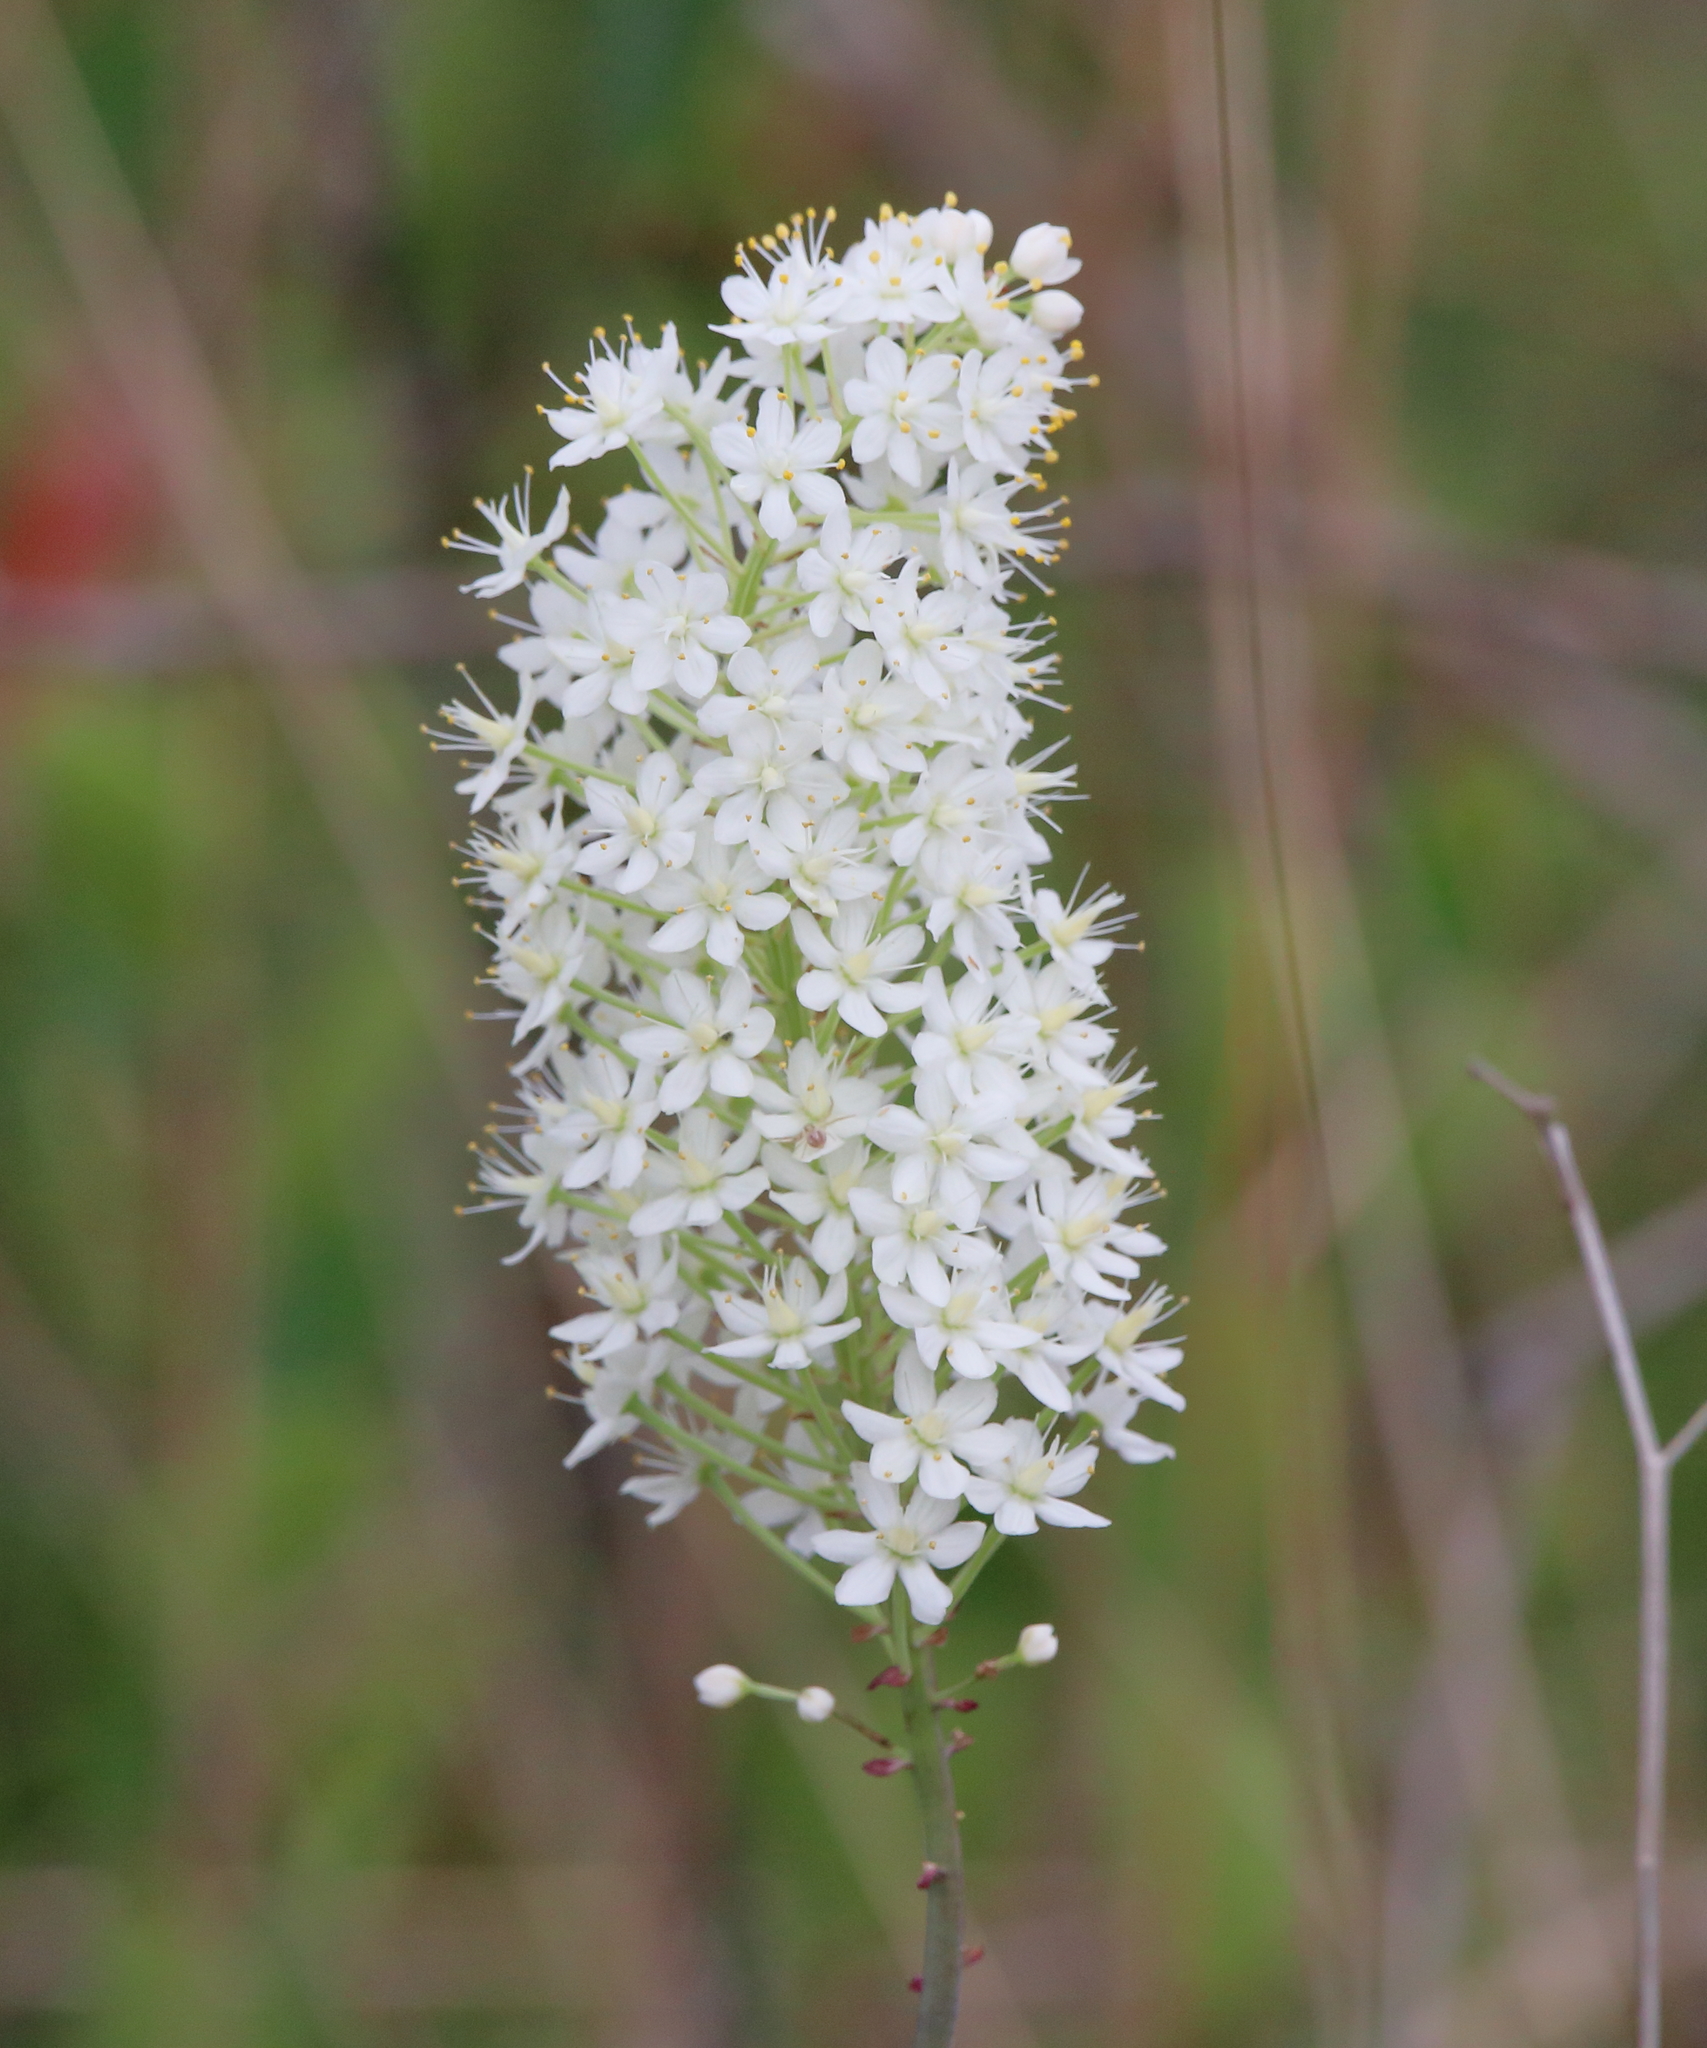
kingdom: Plantae
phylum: Tracheophyta
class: Liliopsida
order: Liliales
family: Melanthiaceae
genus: Stenanthium
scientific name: Stenanthium densum
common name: Crow-poison
